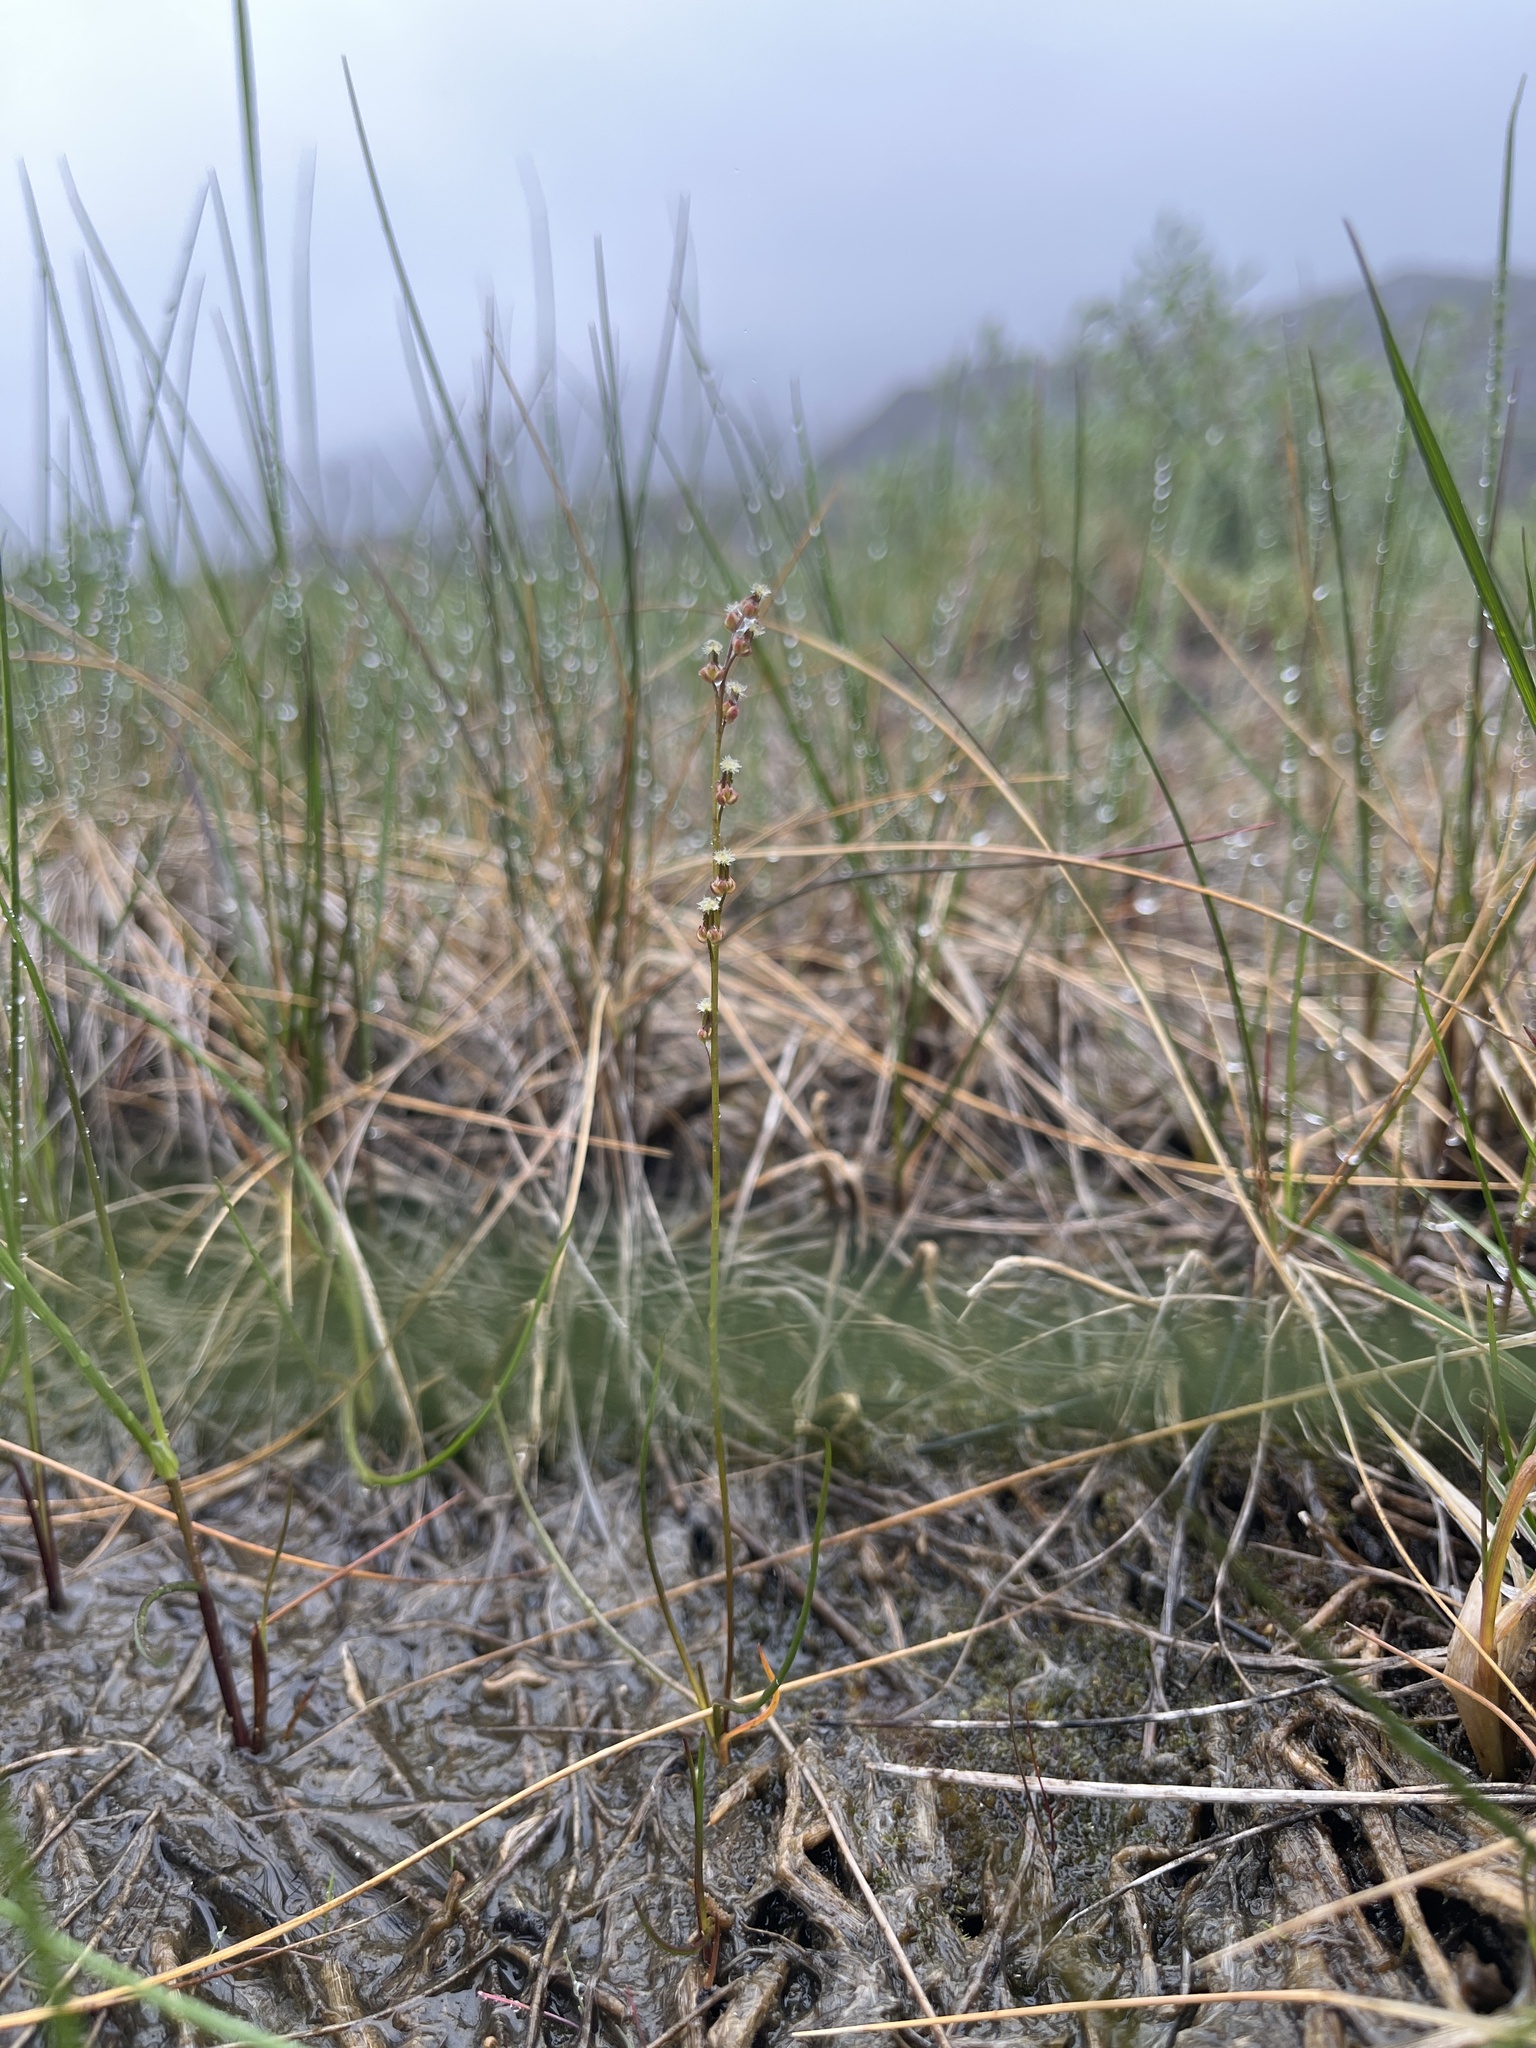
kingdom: Plantae
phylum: Tracheophyta
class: Liliopsida
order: Alismatales
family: Juncaginaceae
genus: Triglochin
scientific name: Triglochin palustris
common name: Marsh arrowgrass
